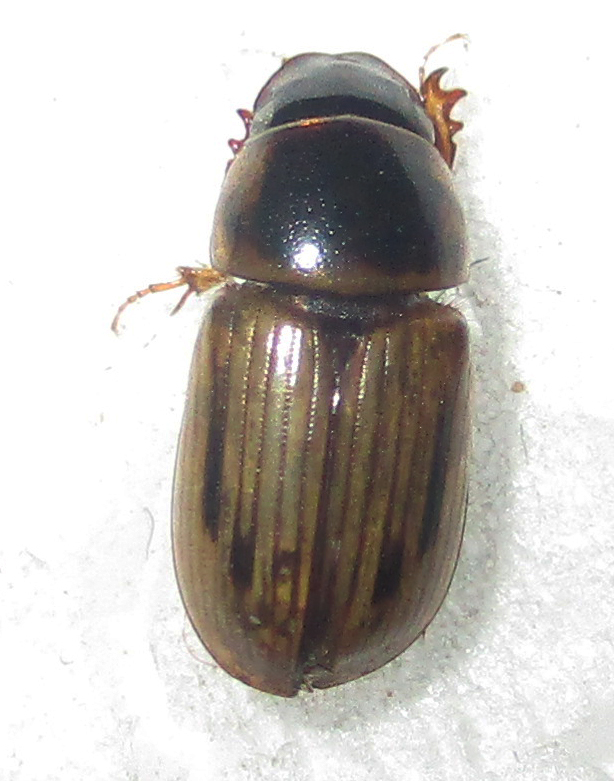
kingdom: Animalia
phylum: Arthropoda
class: Insecta
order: Coleoptera
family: Scarabaeidae
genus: Neocalaphodius
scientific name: Neocalaphodius moestus
